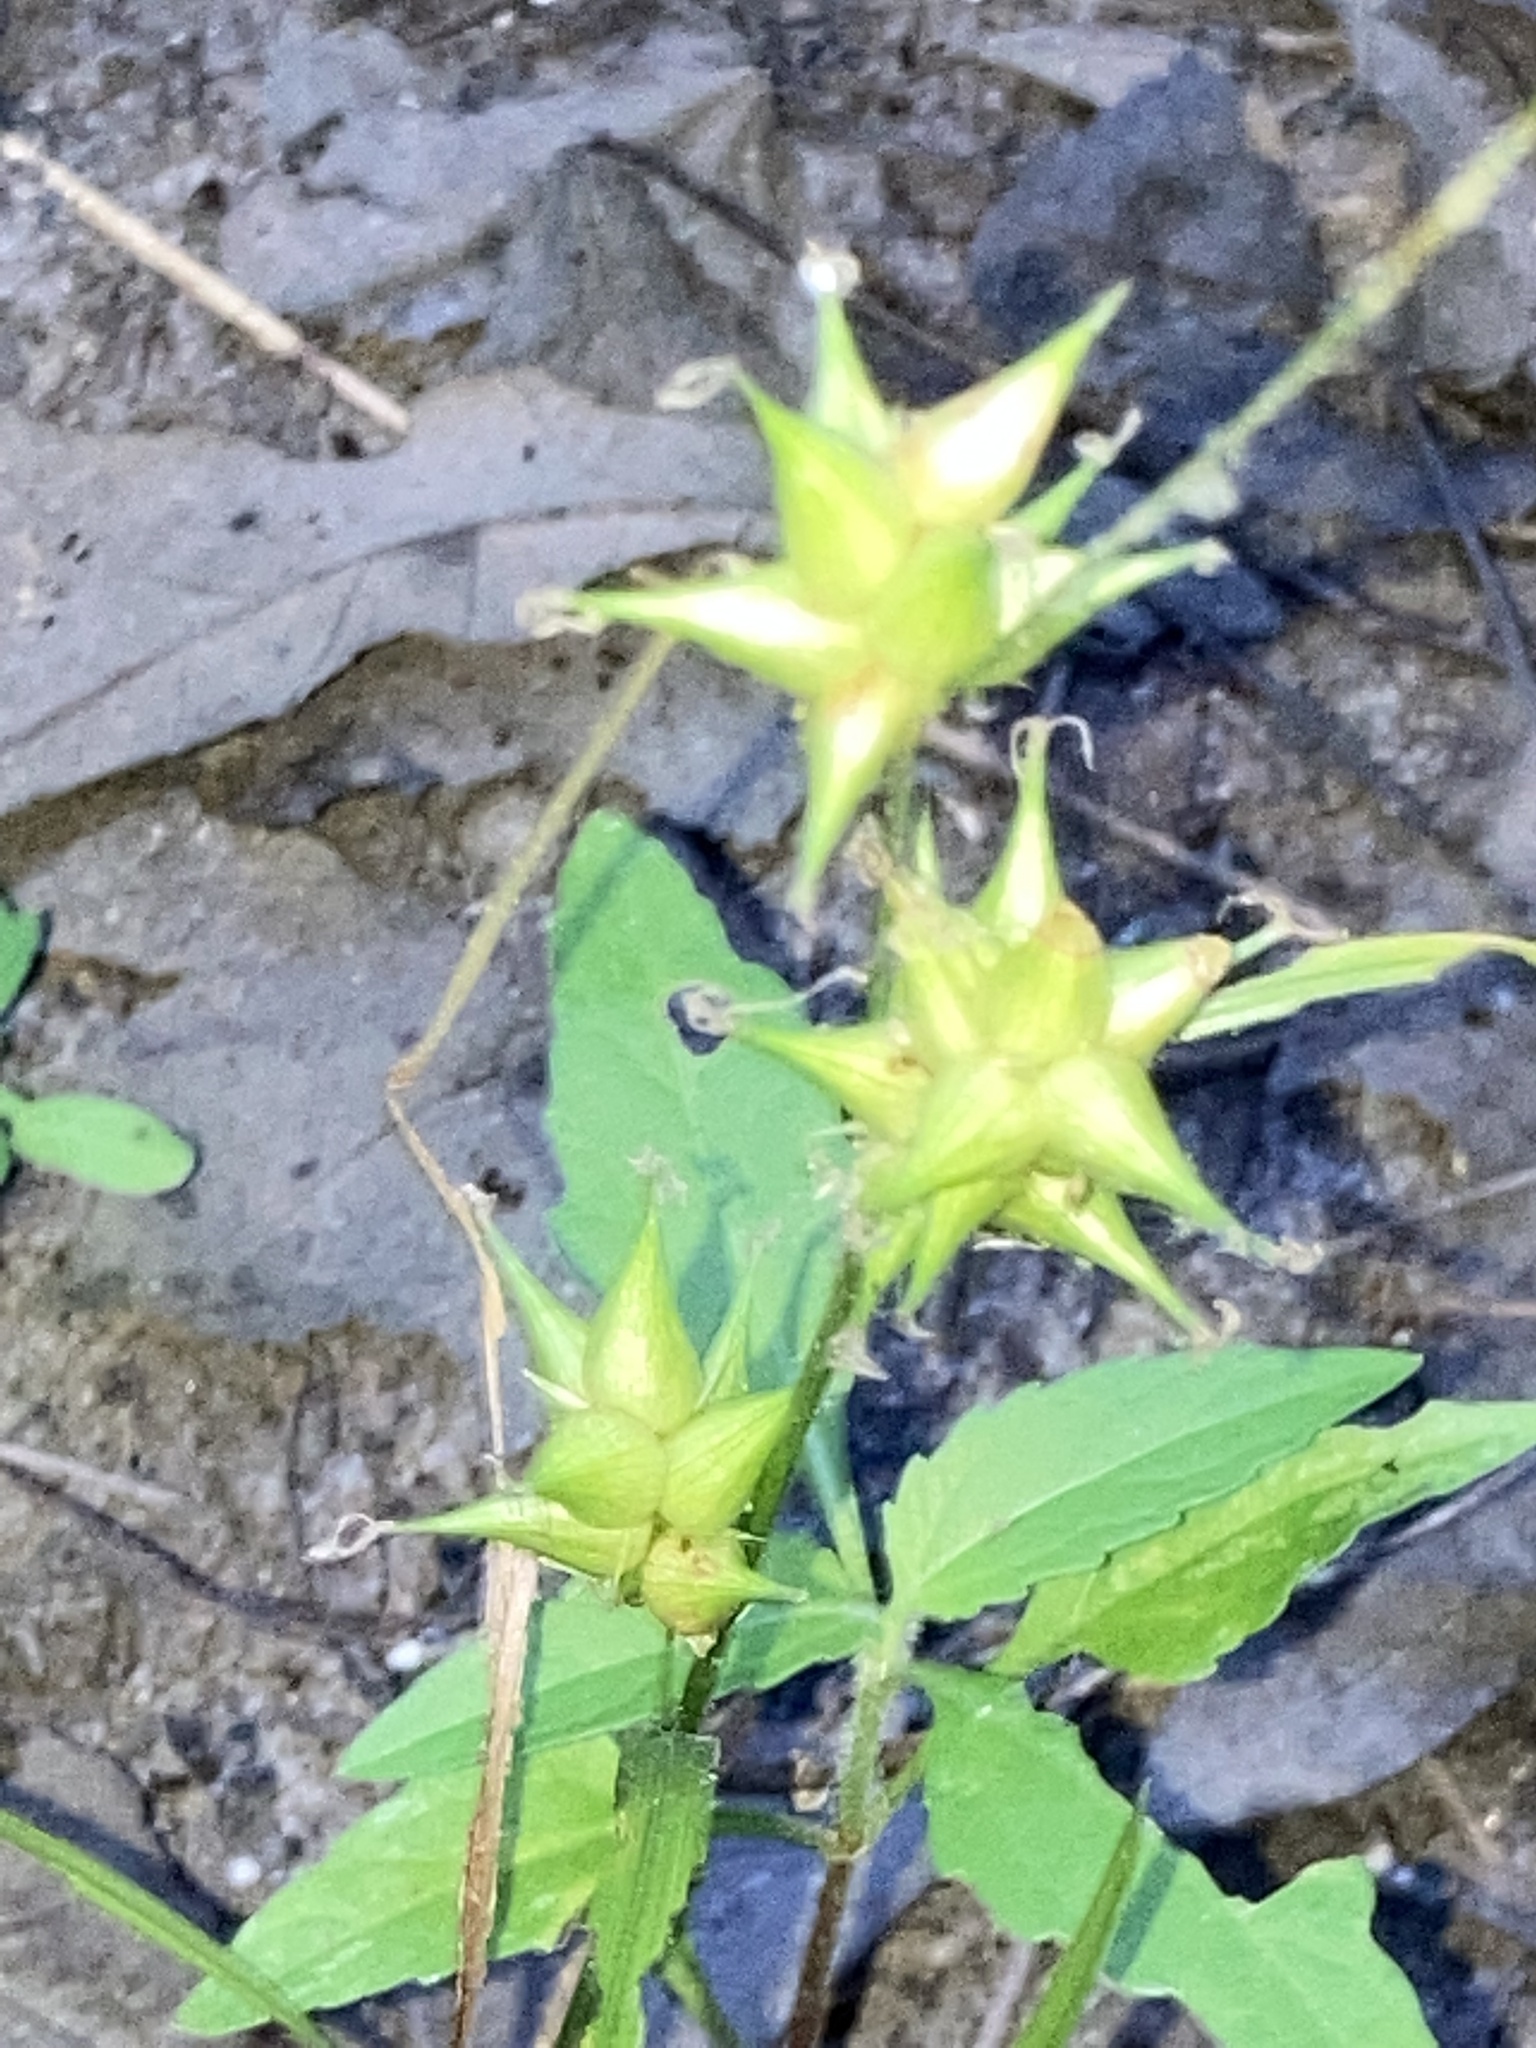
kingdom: Plantae
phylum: Tracheophyta
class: Liliopsida
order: Poales
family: Cyperaceae
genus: Carex
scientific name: Carex intumescens
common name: Greater bladder sedge
